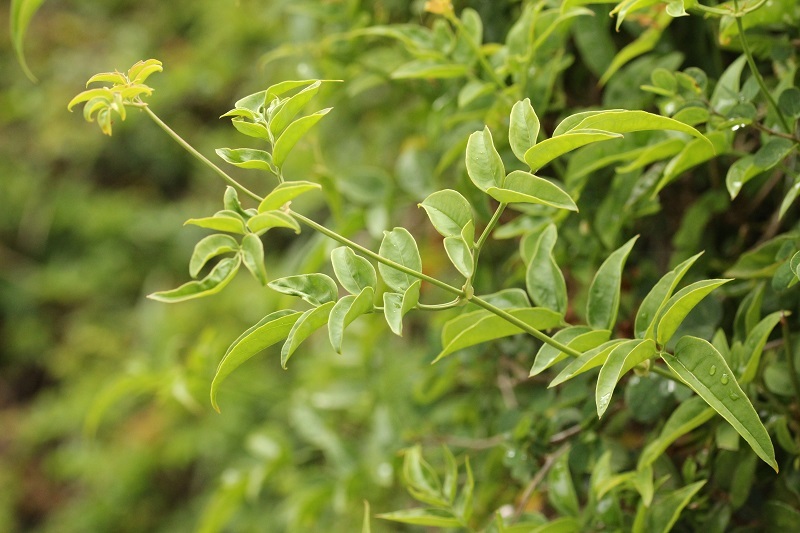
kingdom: Plantae
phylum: Tracheophyta
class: Magnoliopsida
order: Lamiales
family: Oleaceae
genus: Jasminum
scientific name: Jasminum polyanthum
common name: Pink jasmine
